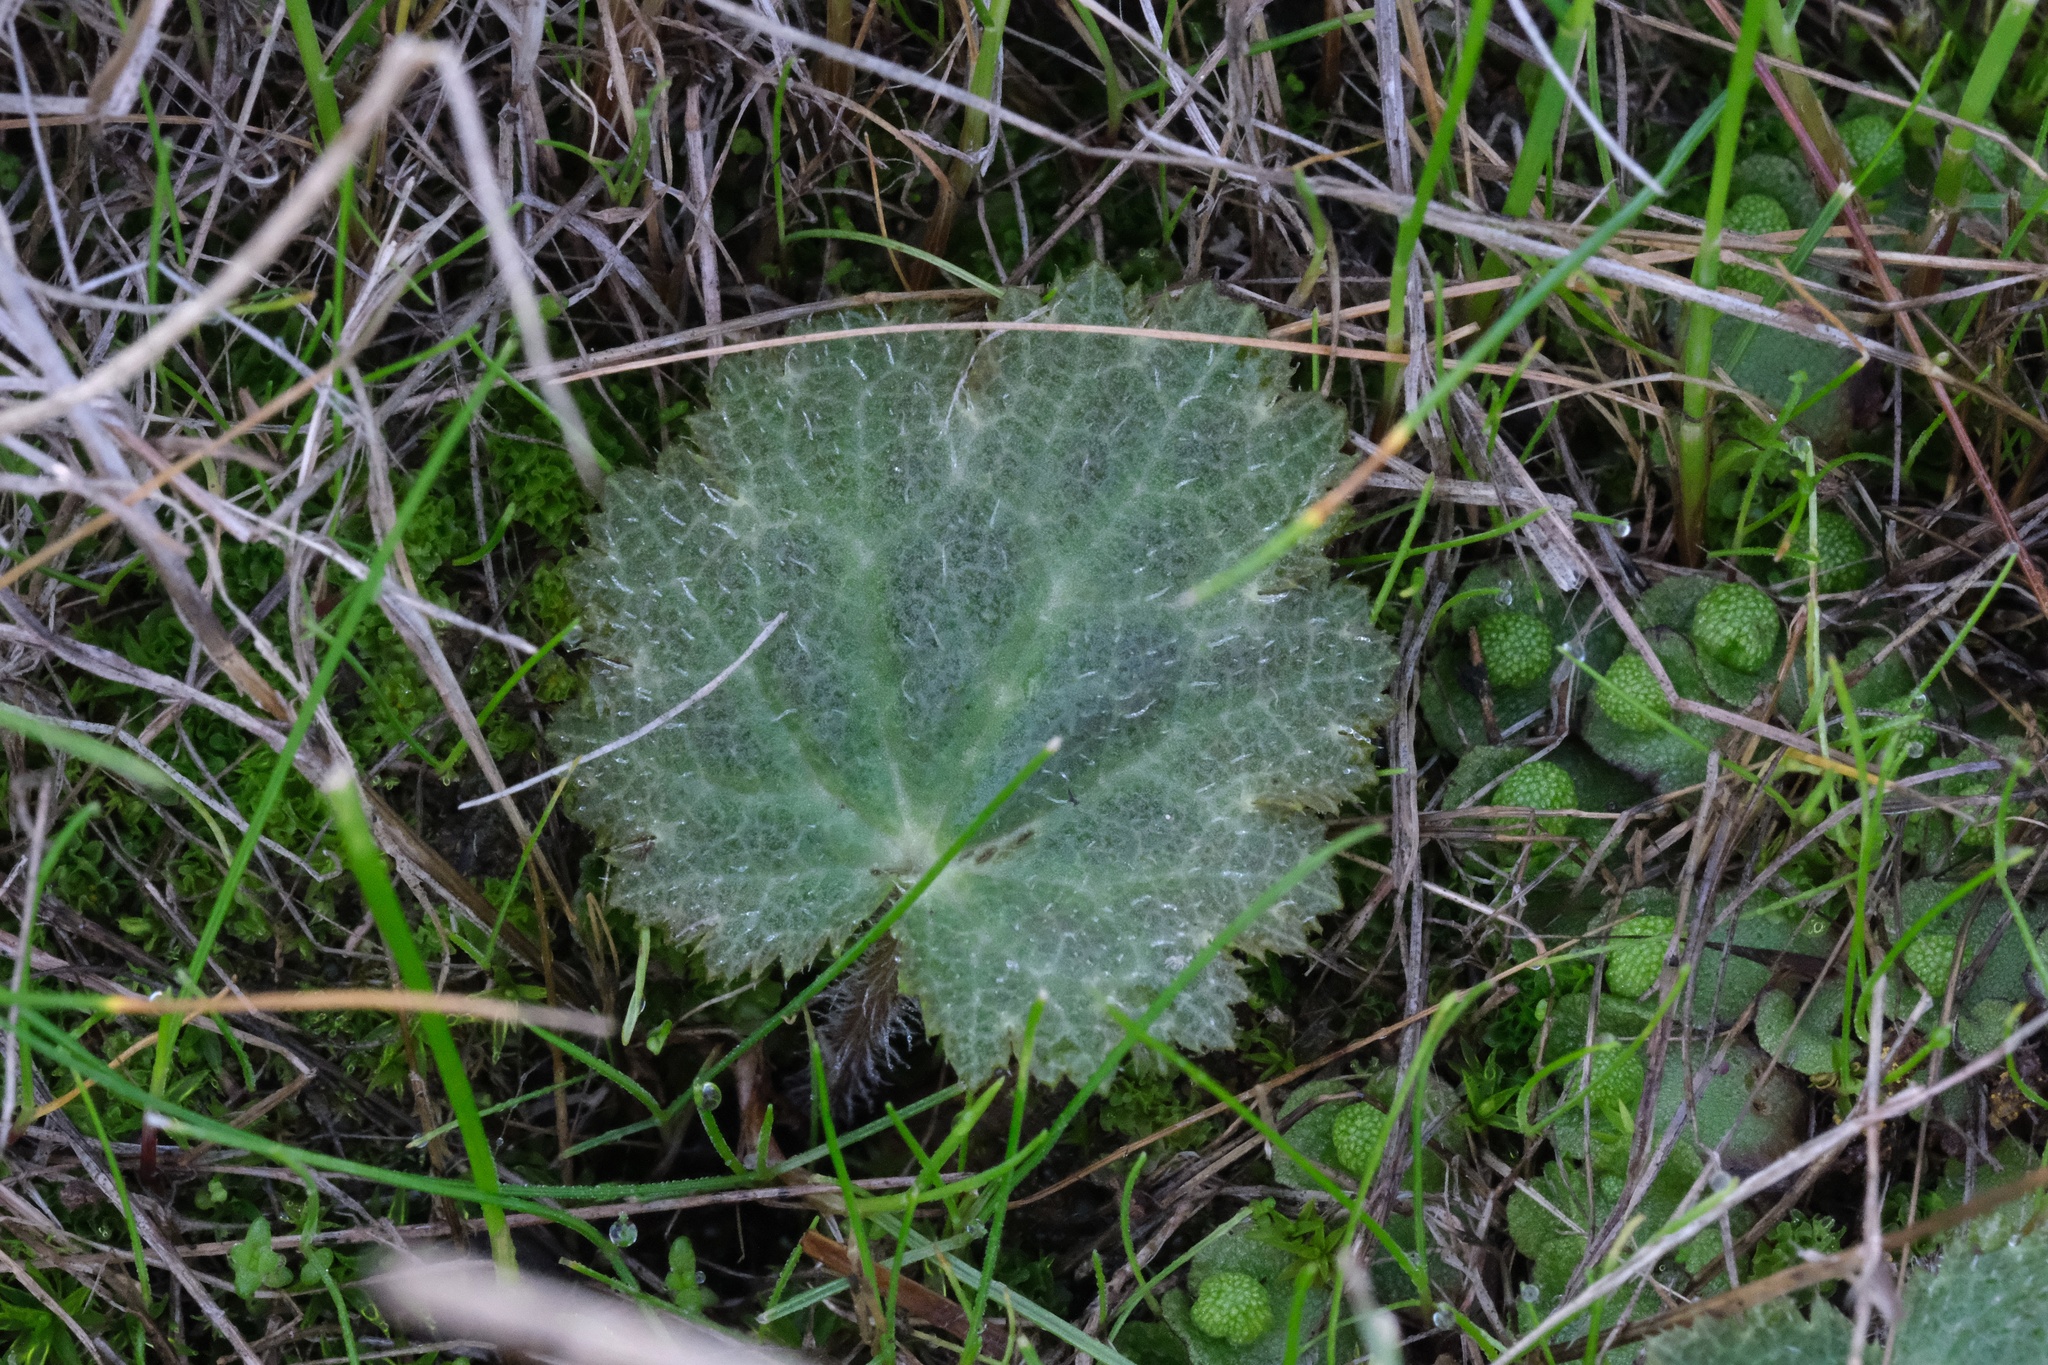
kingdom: Plantae
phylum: Tracheophyta
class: Magnoliopsida
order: Saxifragales
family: Saxifragaceae
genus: Jepsonia
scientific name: Jepsonia parryi
